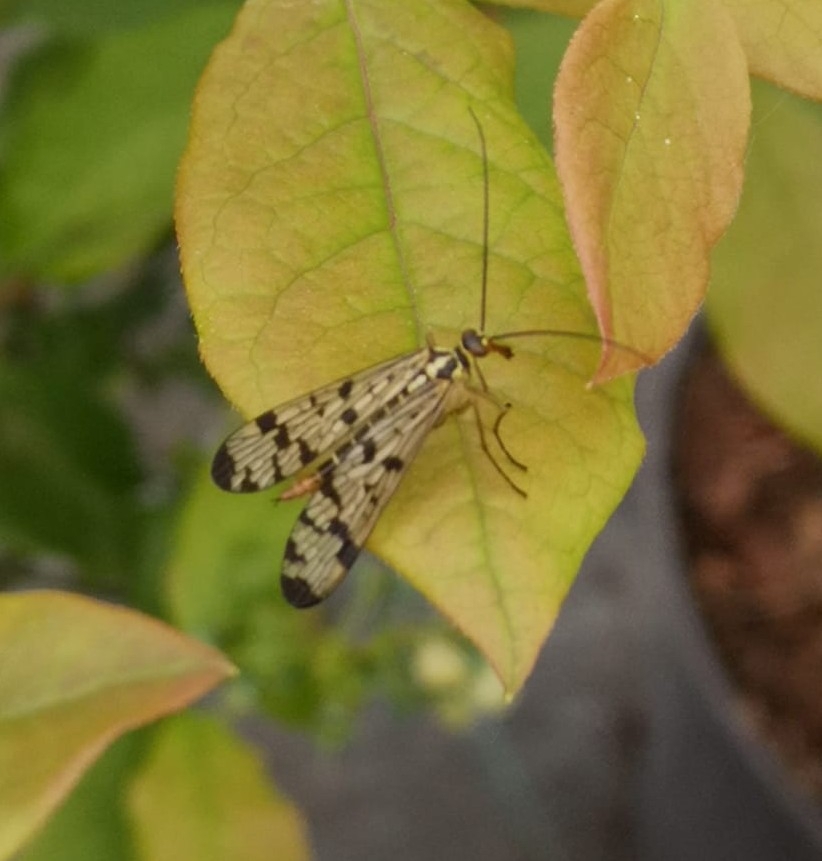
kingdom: Animalia
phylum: Arthropoda
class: Insecta
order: Mecoptera
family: Panorpidae
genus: Panorpa
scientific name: Panorpa germanica
